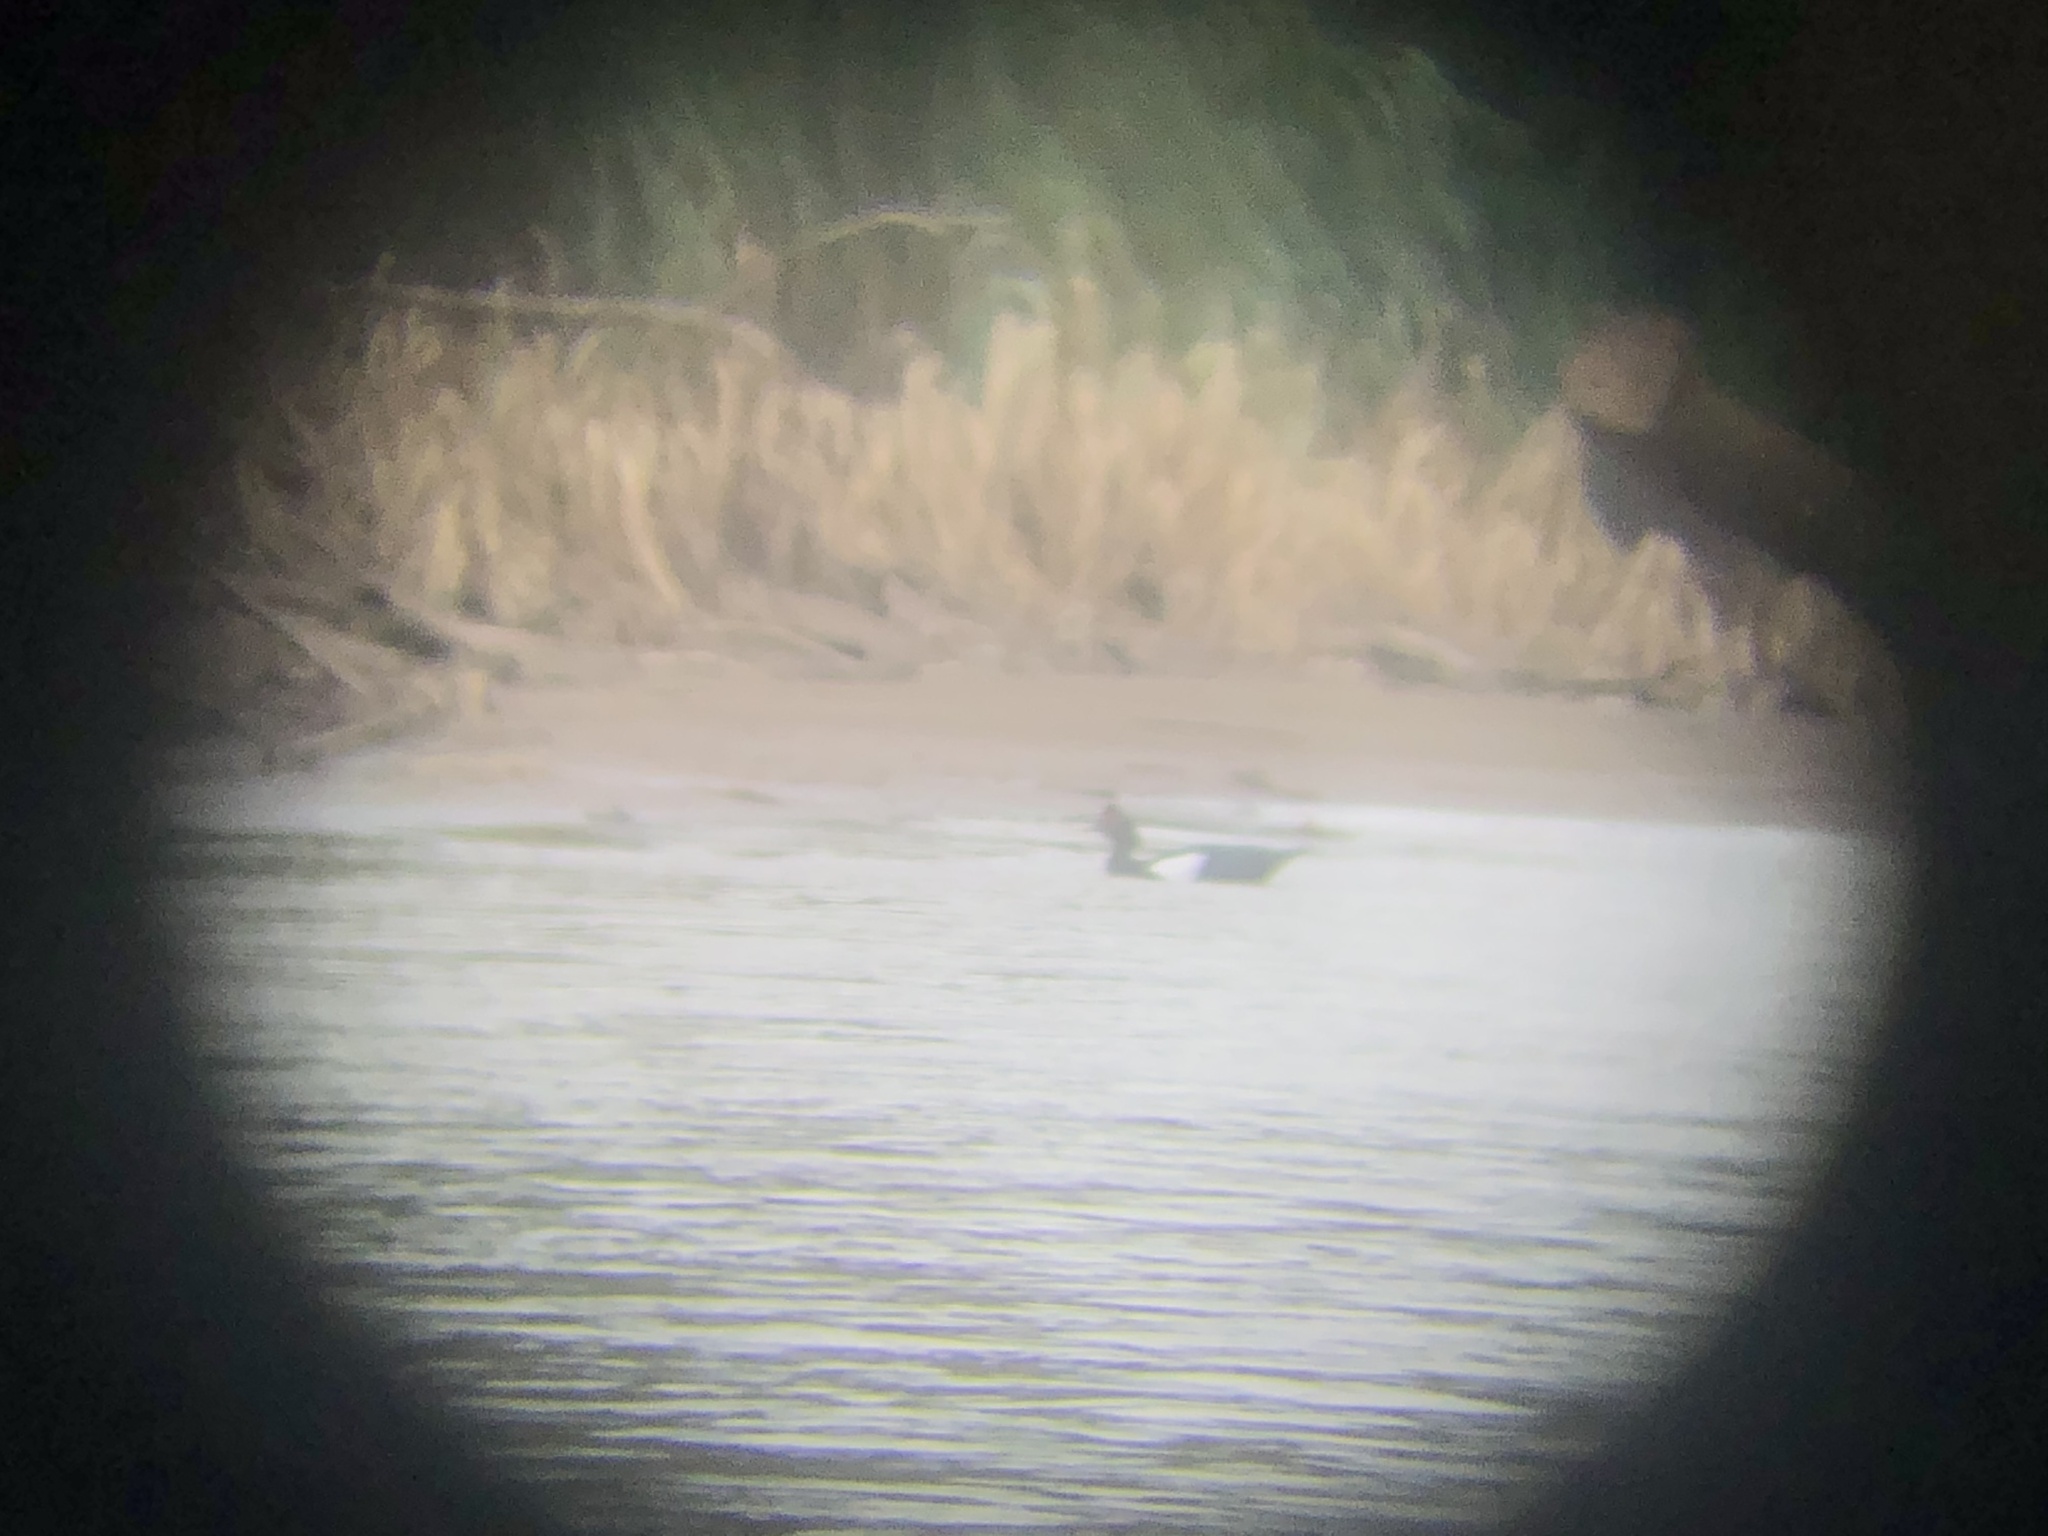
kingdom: Animalia
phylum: Chordata
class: Aves
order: Anseriformes
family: Anatidae
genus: Cairina
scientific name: Cairina moschata
